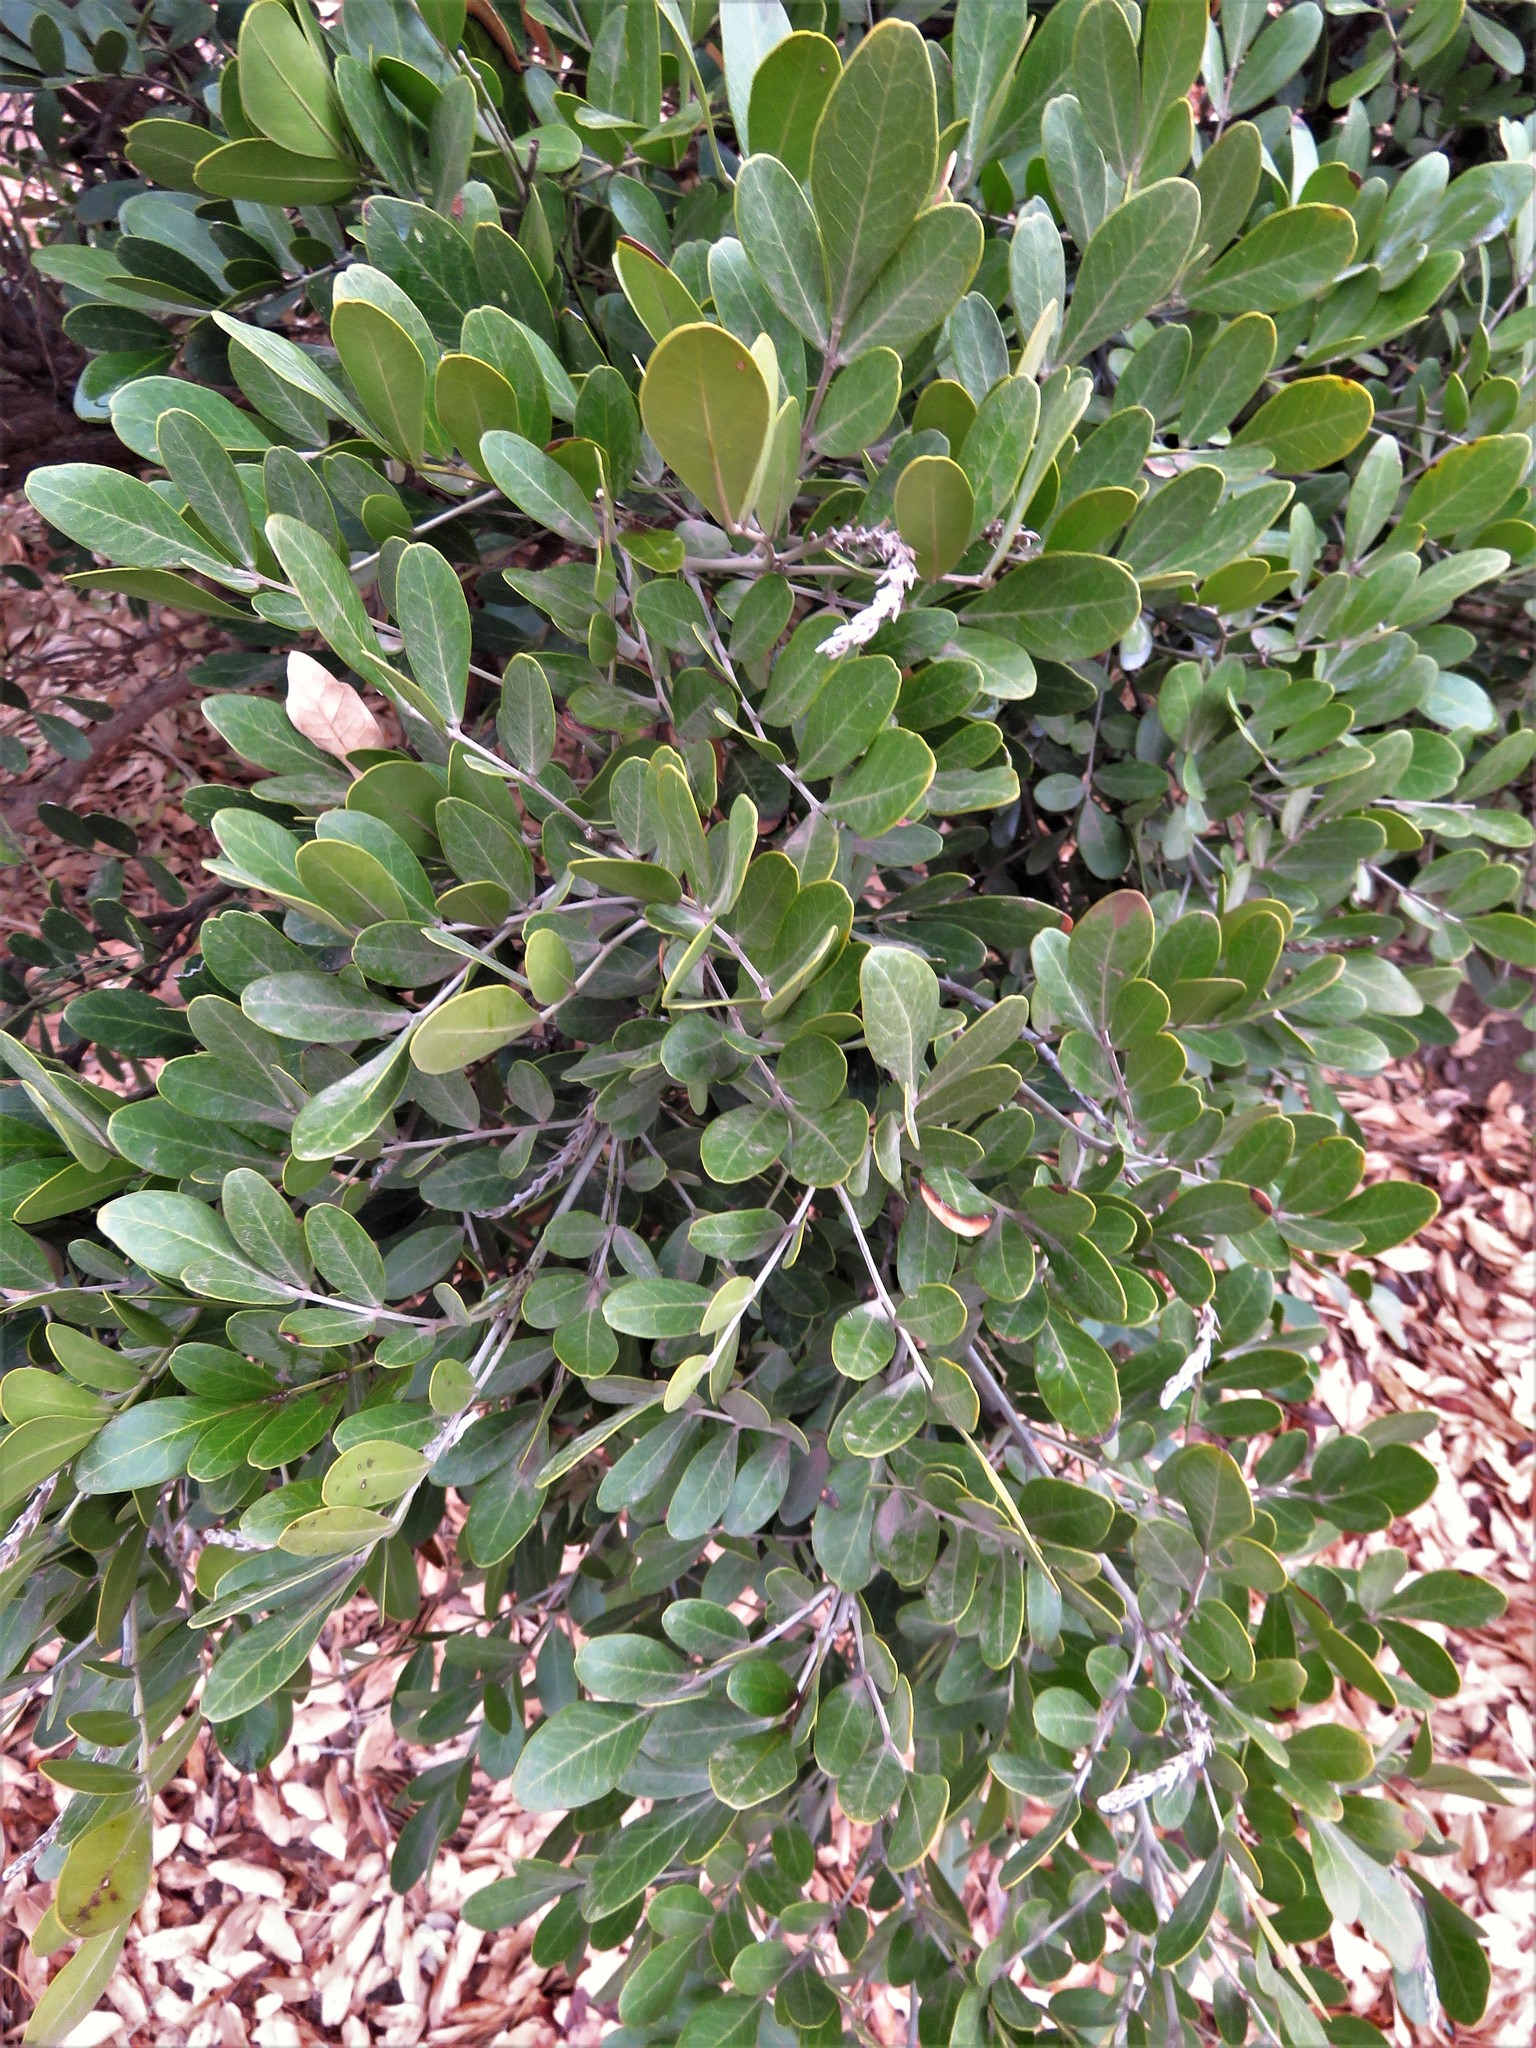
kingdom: Plantae
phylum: Tracheophyta
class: Magnoliopsida
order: Fabales
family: Fabaceae
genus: Dermatophyllum
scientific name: Dermatophyllum secundiflorum
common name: Texas-mountain-laurel
